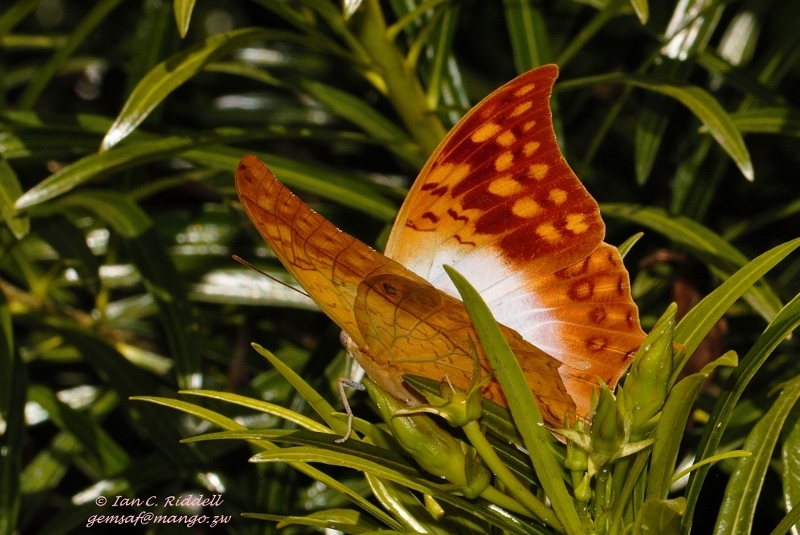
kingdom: Animalia
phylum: Arthropoda
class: Insecta
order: Lepidoptera
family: Nymphalidae
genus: Charaxes
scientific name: Charaxes varanes
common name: Common pearl charaxes
